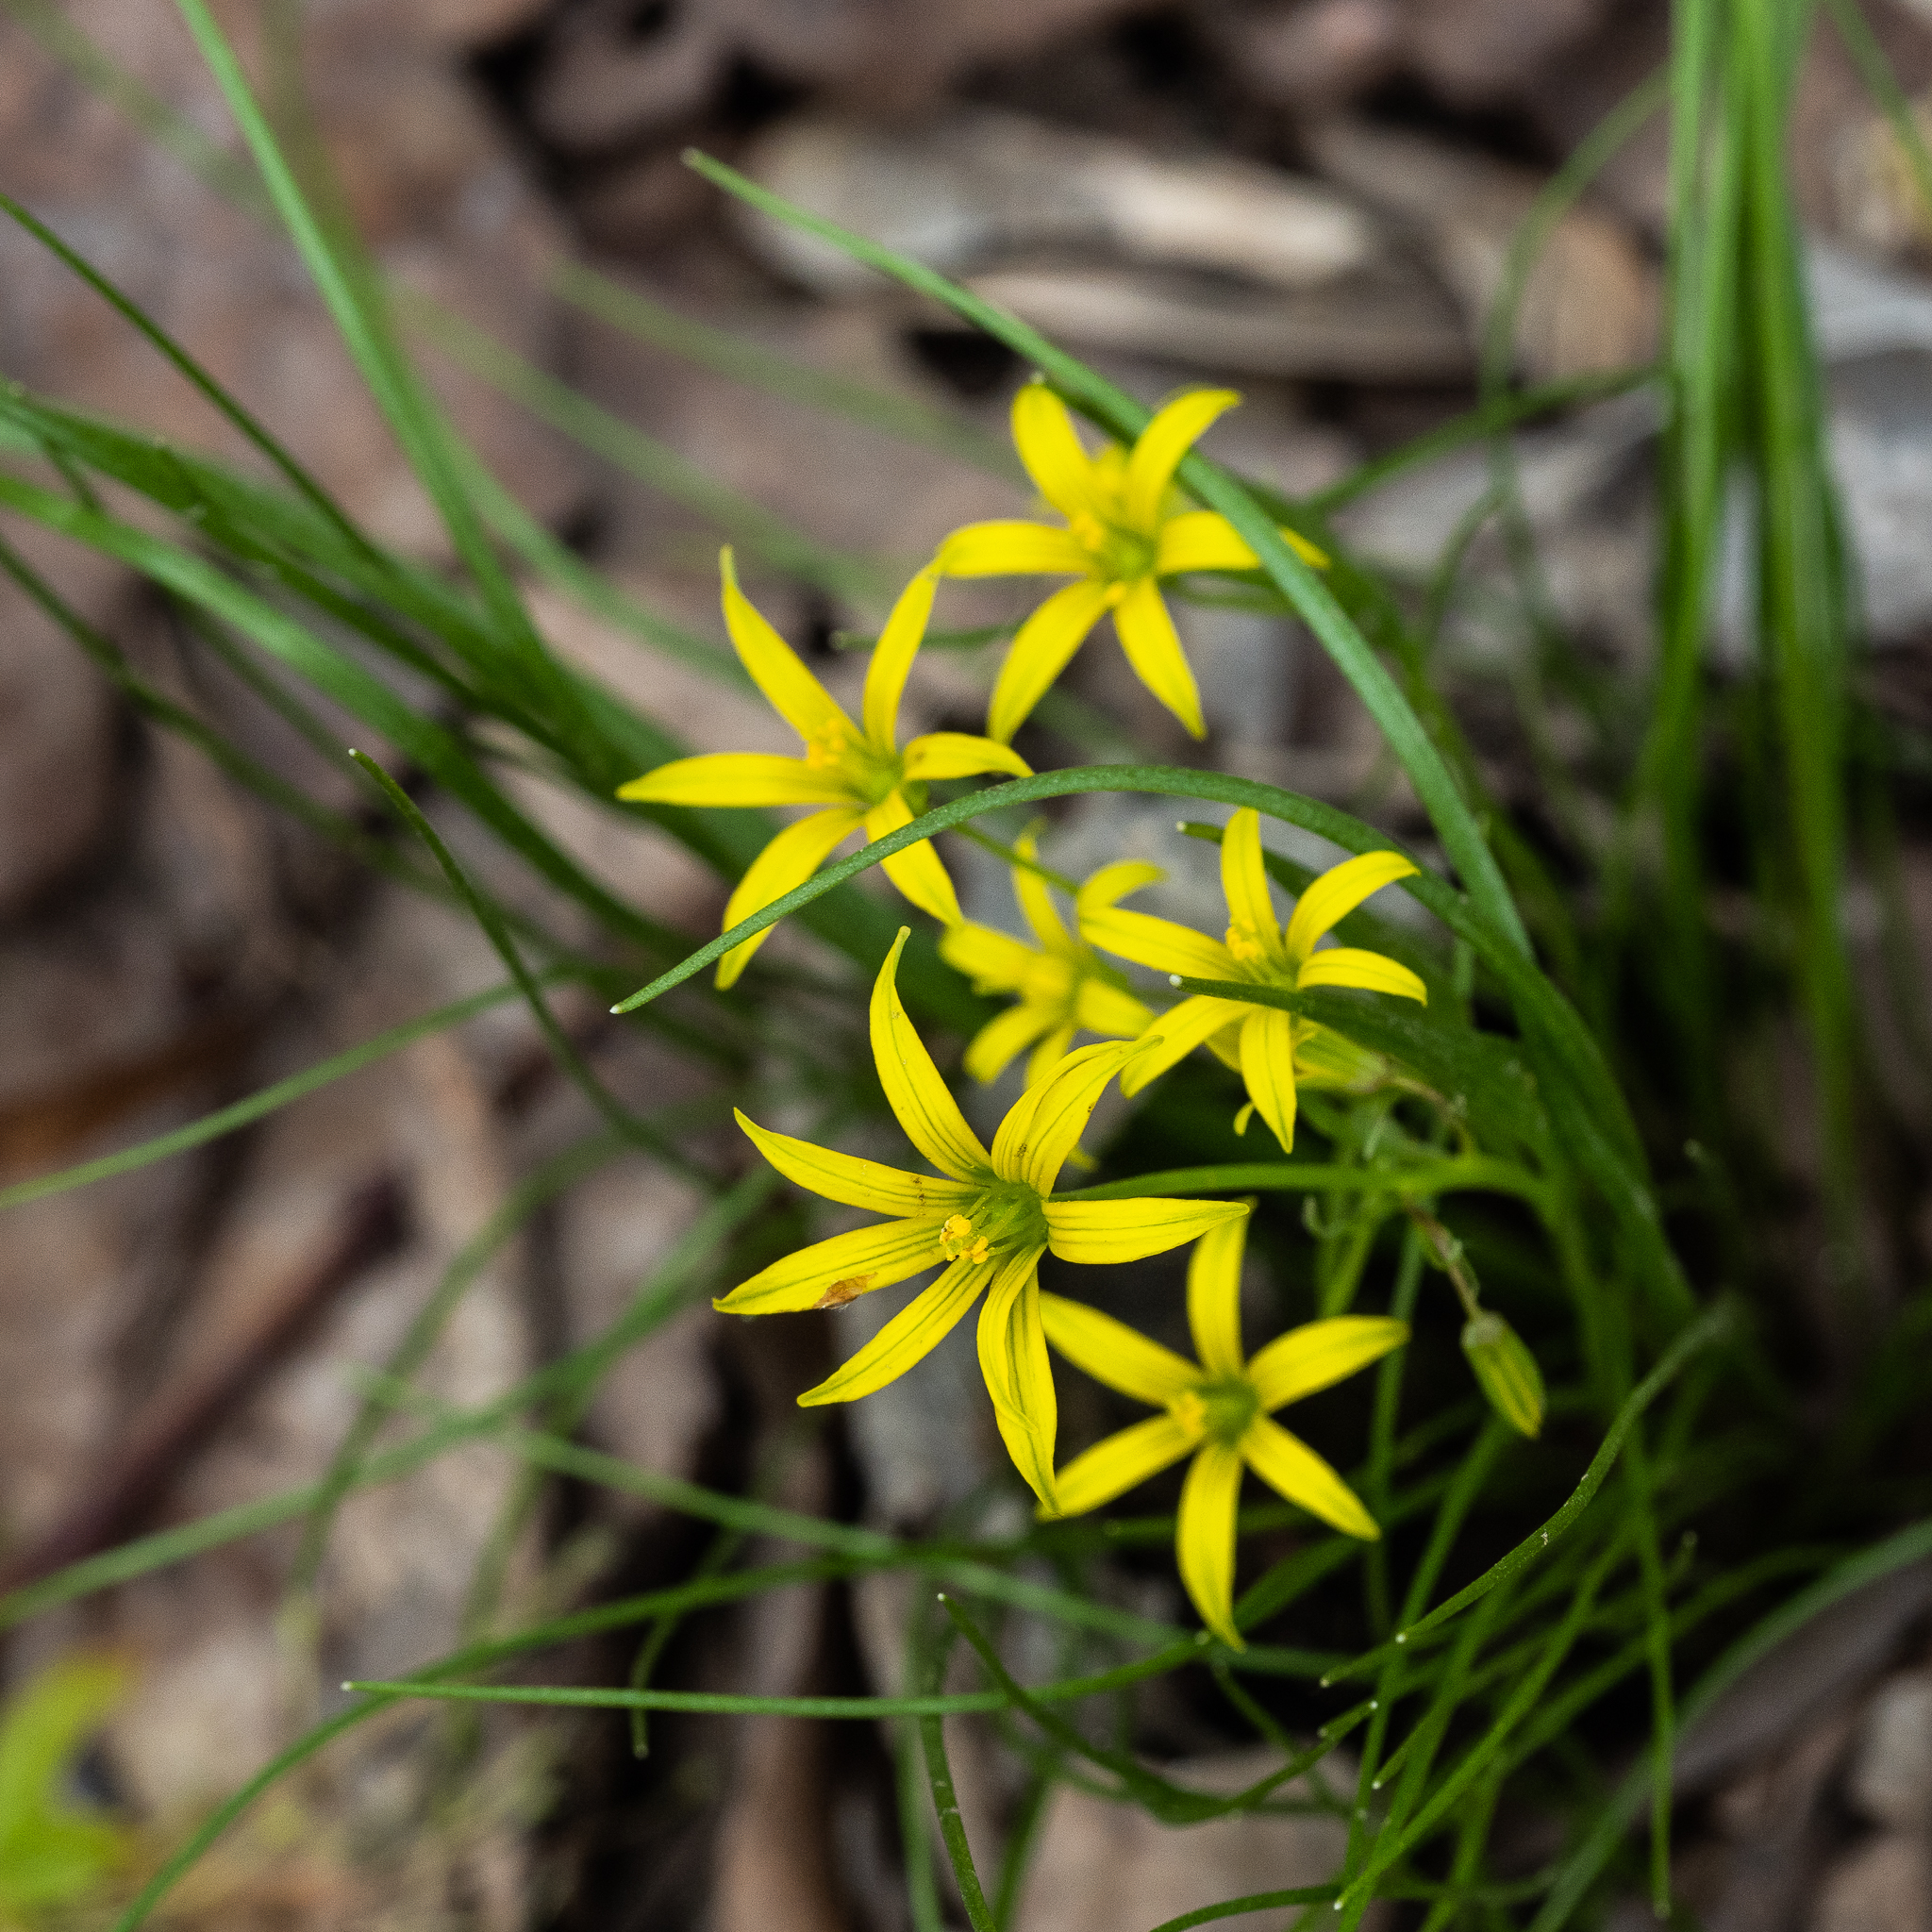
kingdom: Plantae
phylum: Tracheophyta
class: Liliopsida
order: Liliales
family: Liliaceae
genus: Gagea
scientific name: Gagea minima
